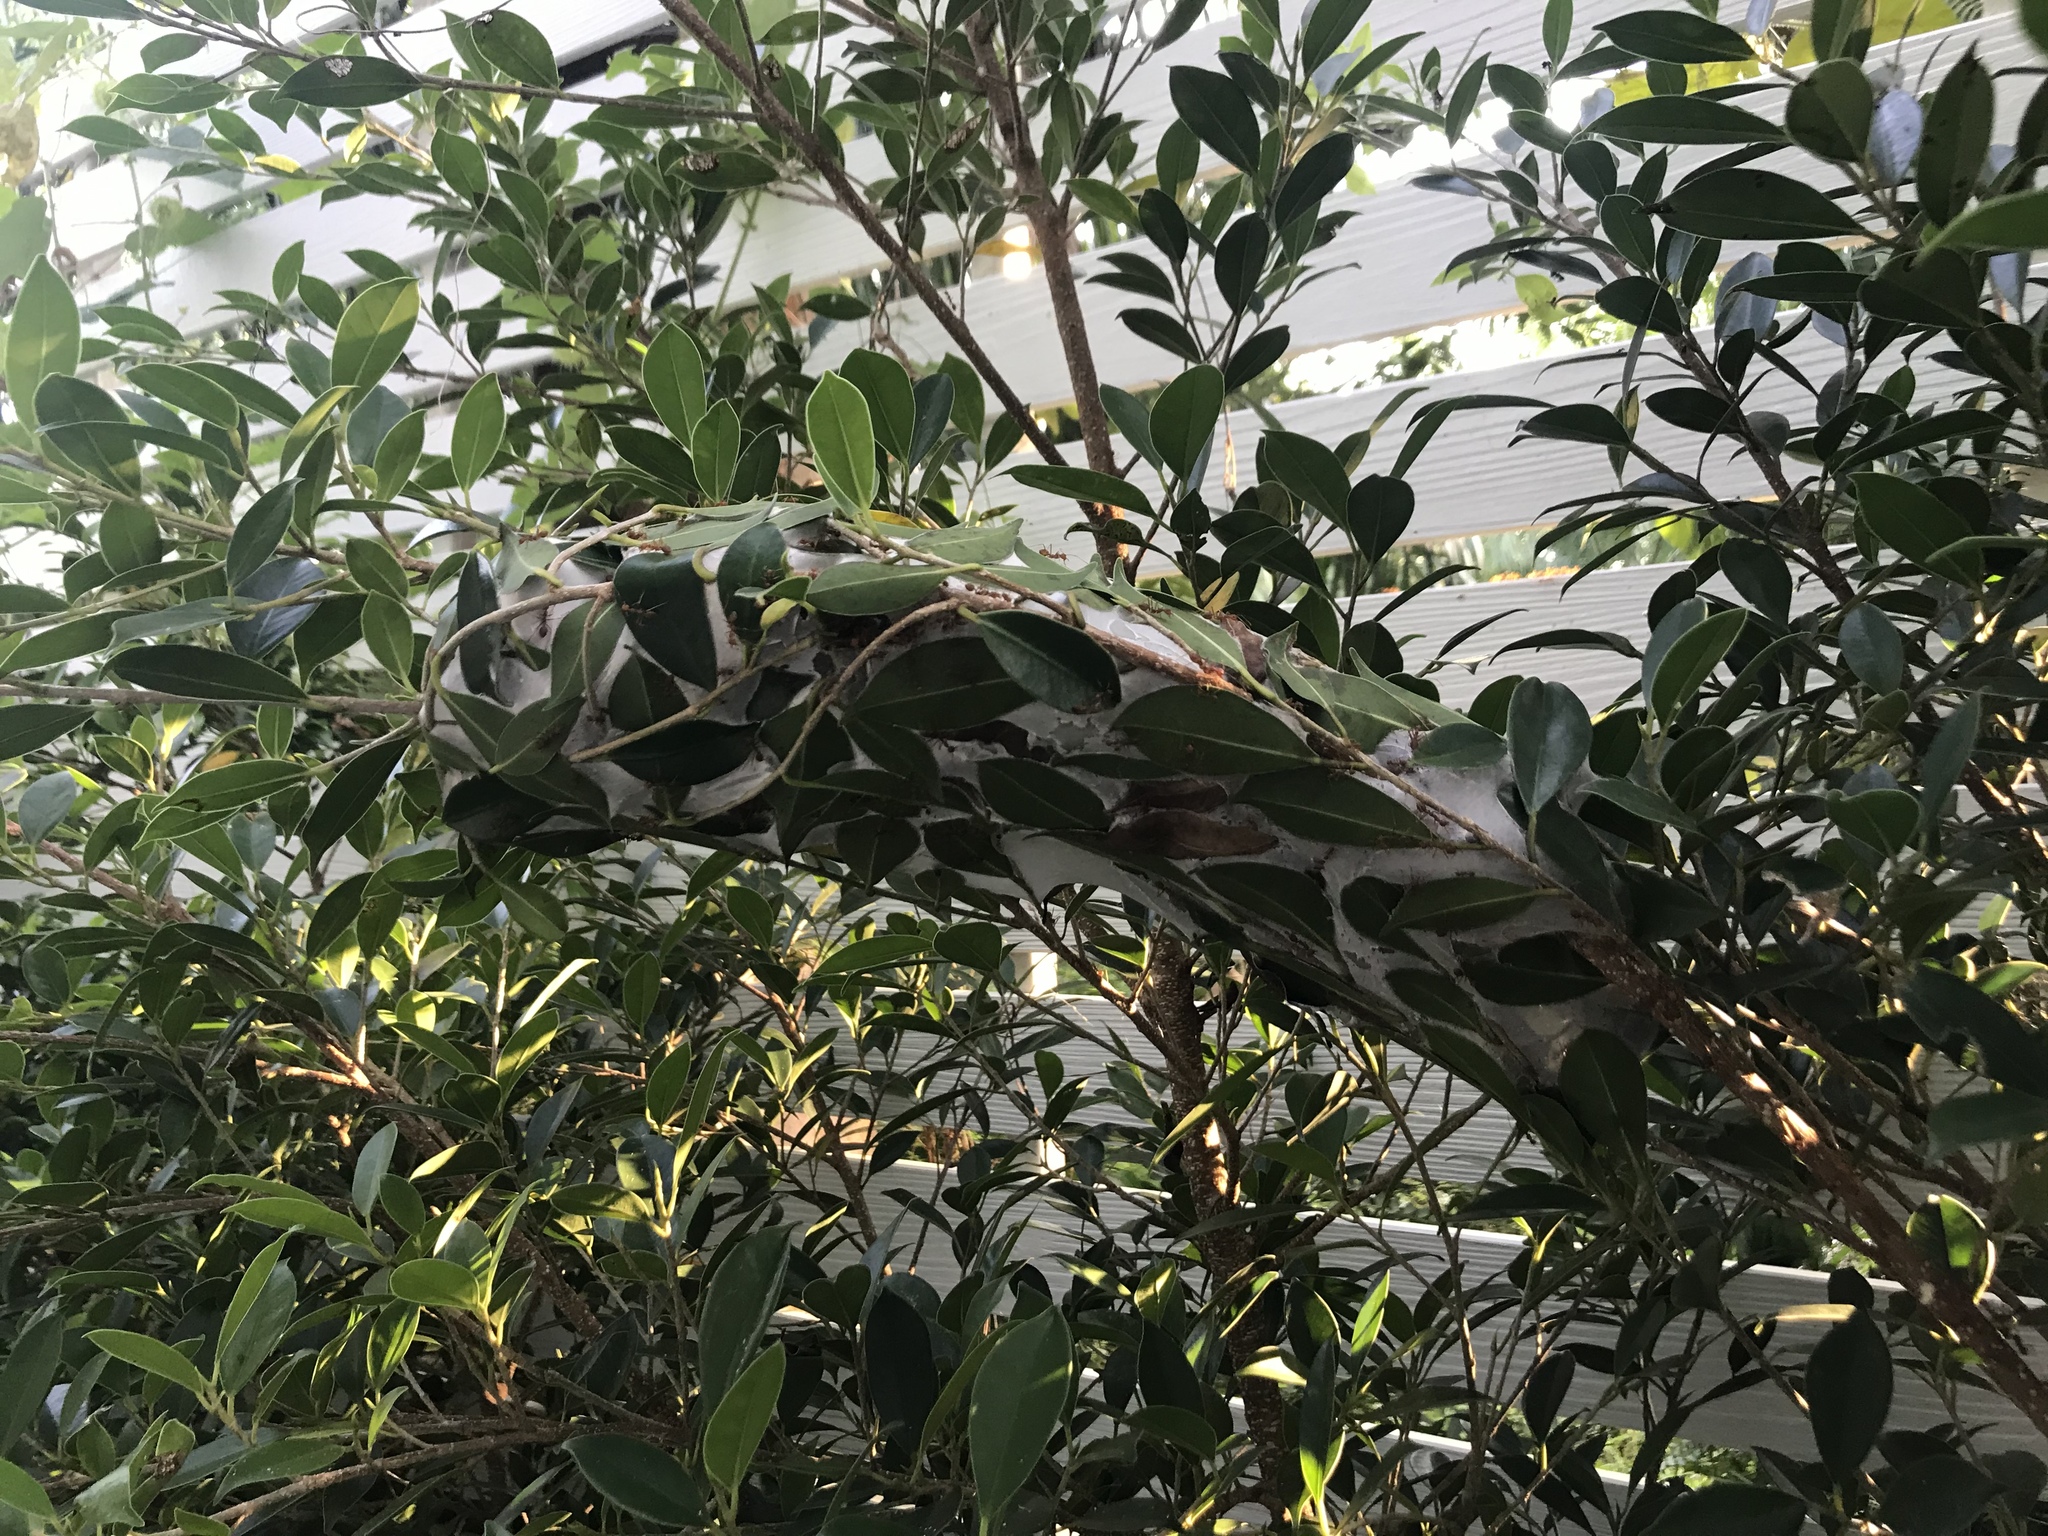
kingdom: Animalia
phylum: Arthropoda
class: Insecta
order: Hymenoptera
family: Formicidae
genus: Oecophylla
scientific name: Oecophylla smaragdina
